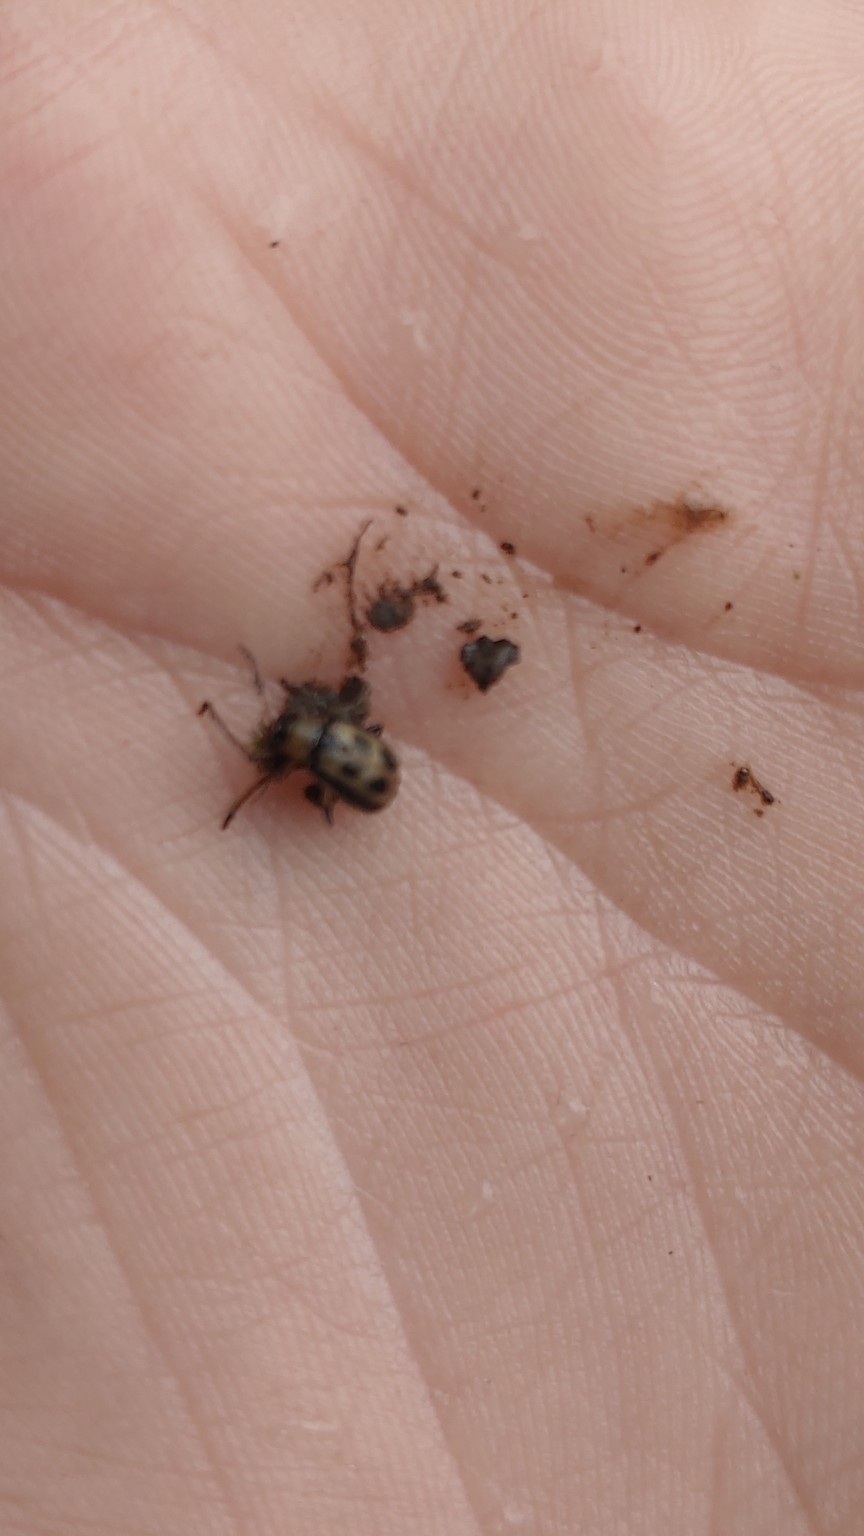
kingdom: Animalia
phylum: Arthropoda
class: Insecta
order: Coleoptera
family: Chrysomelidae
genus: Cerotoma
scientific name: Cerotoma trifurcata
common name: Bean leaf beetle
